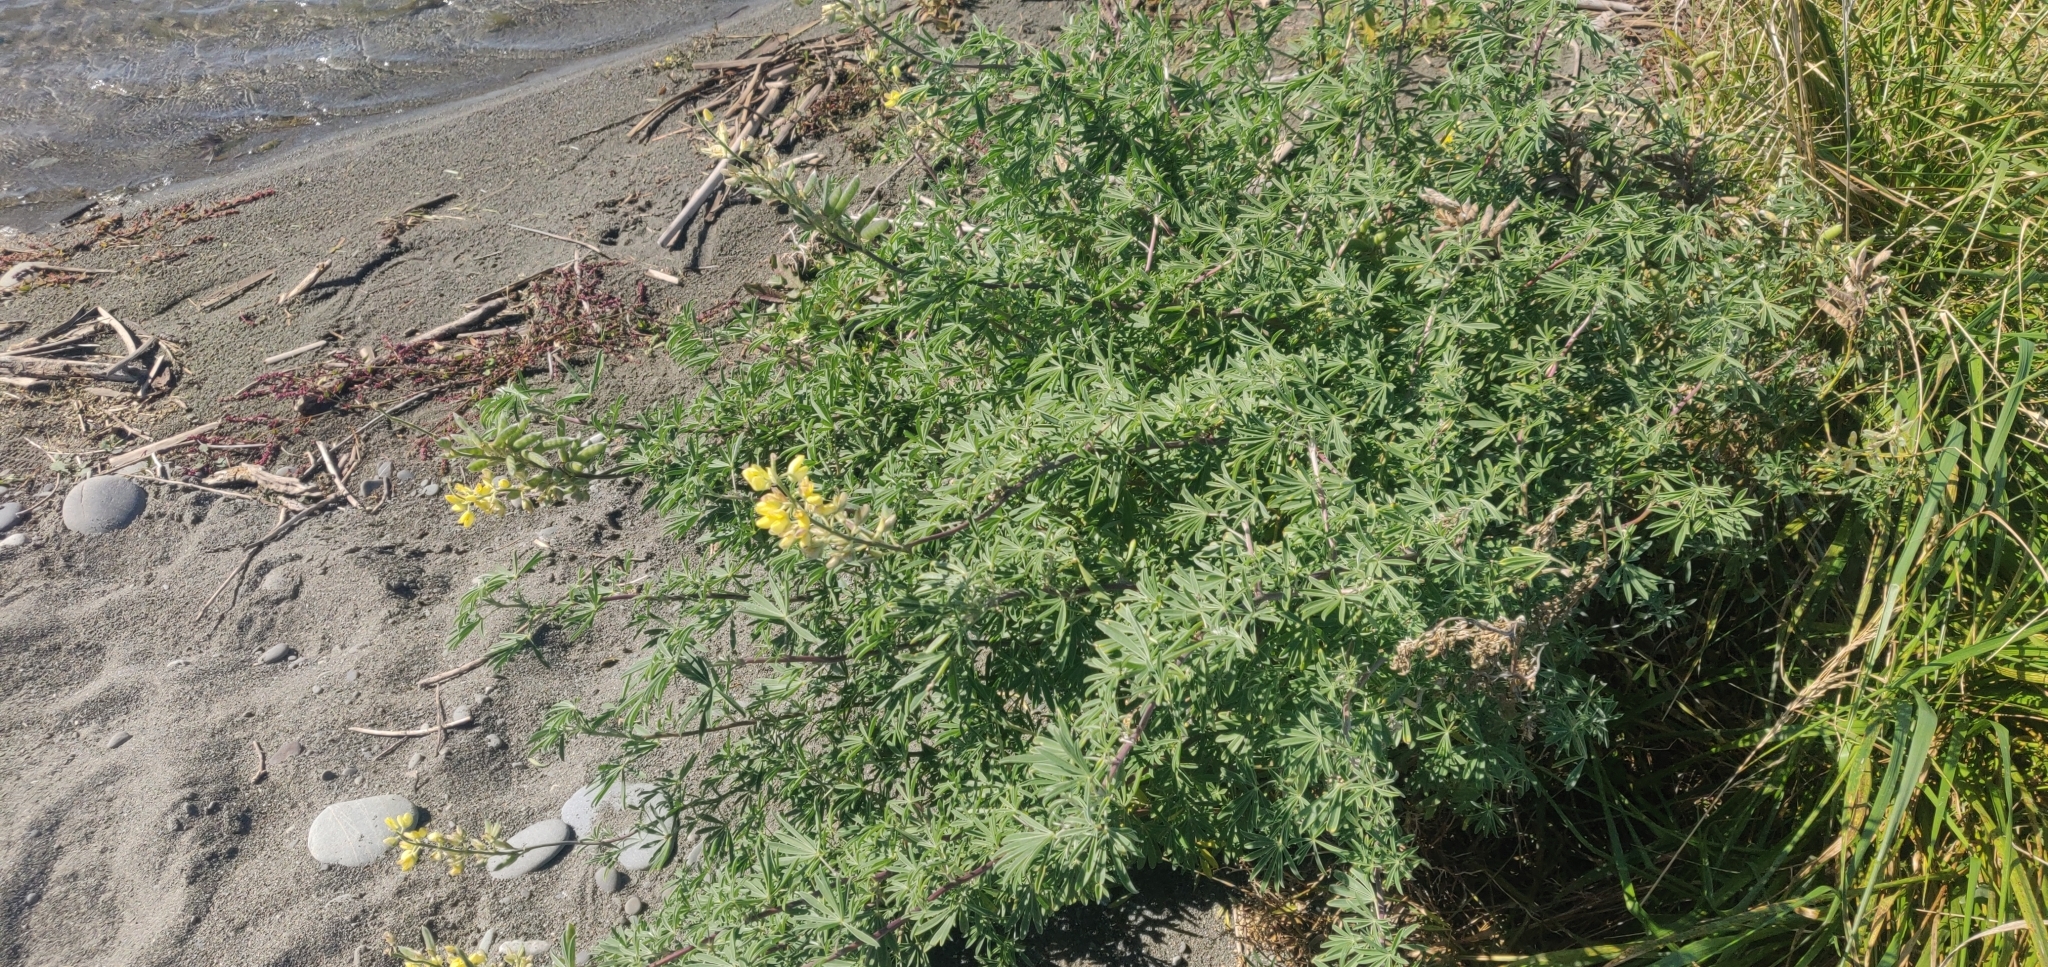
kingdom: Plantae
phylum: Tracheophyta
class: Magnoliopsida
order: Fabales
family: Fabaceae
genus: Lupinus
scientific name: Lupinus arboreus
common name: Yellow bush lupine
